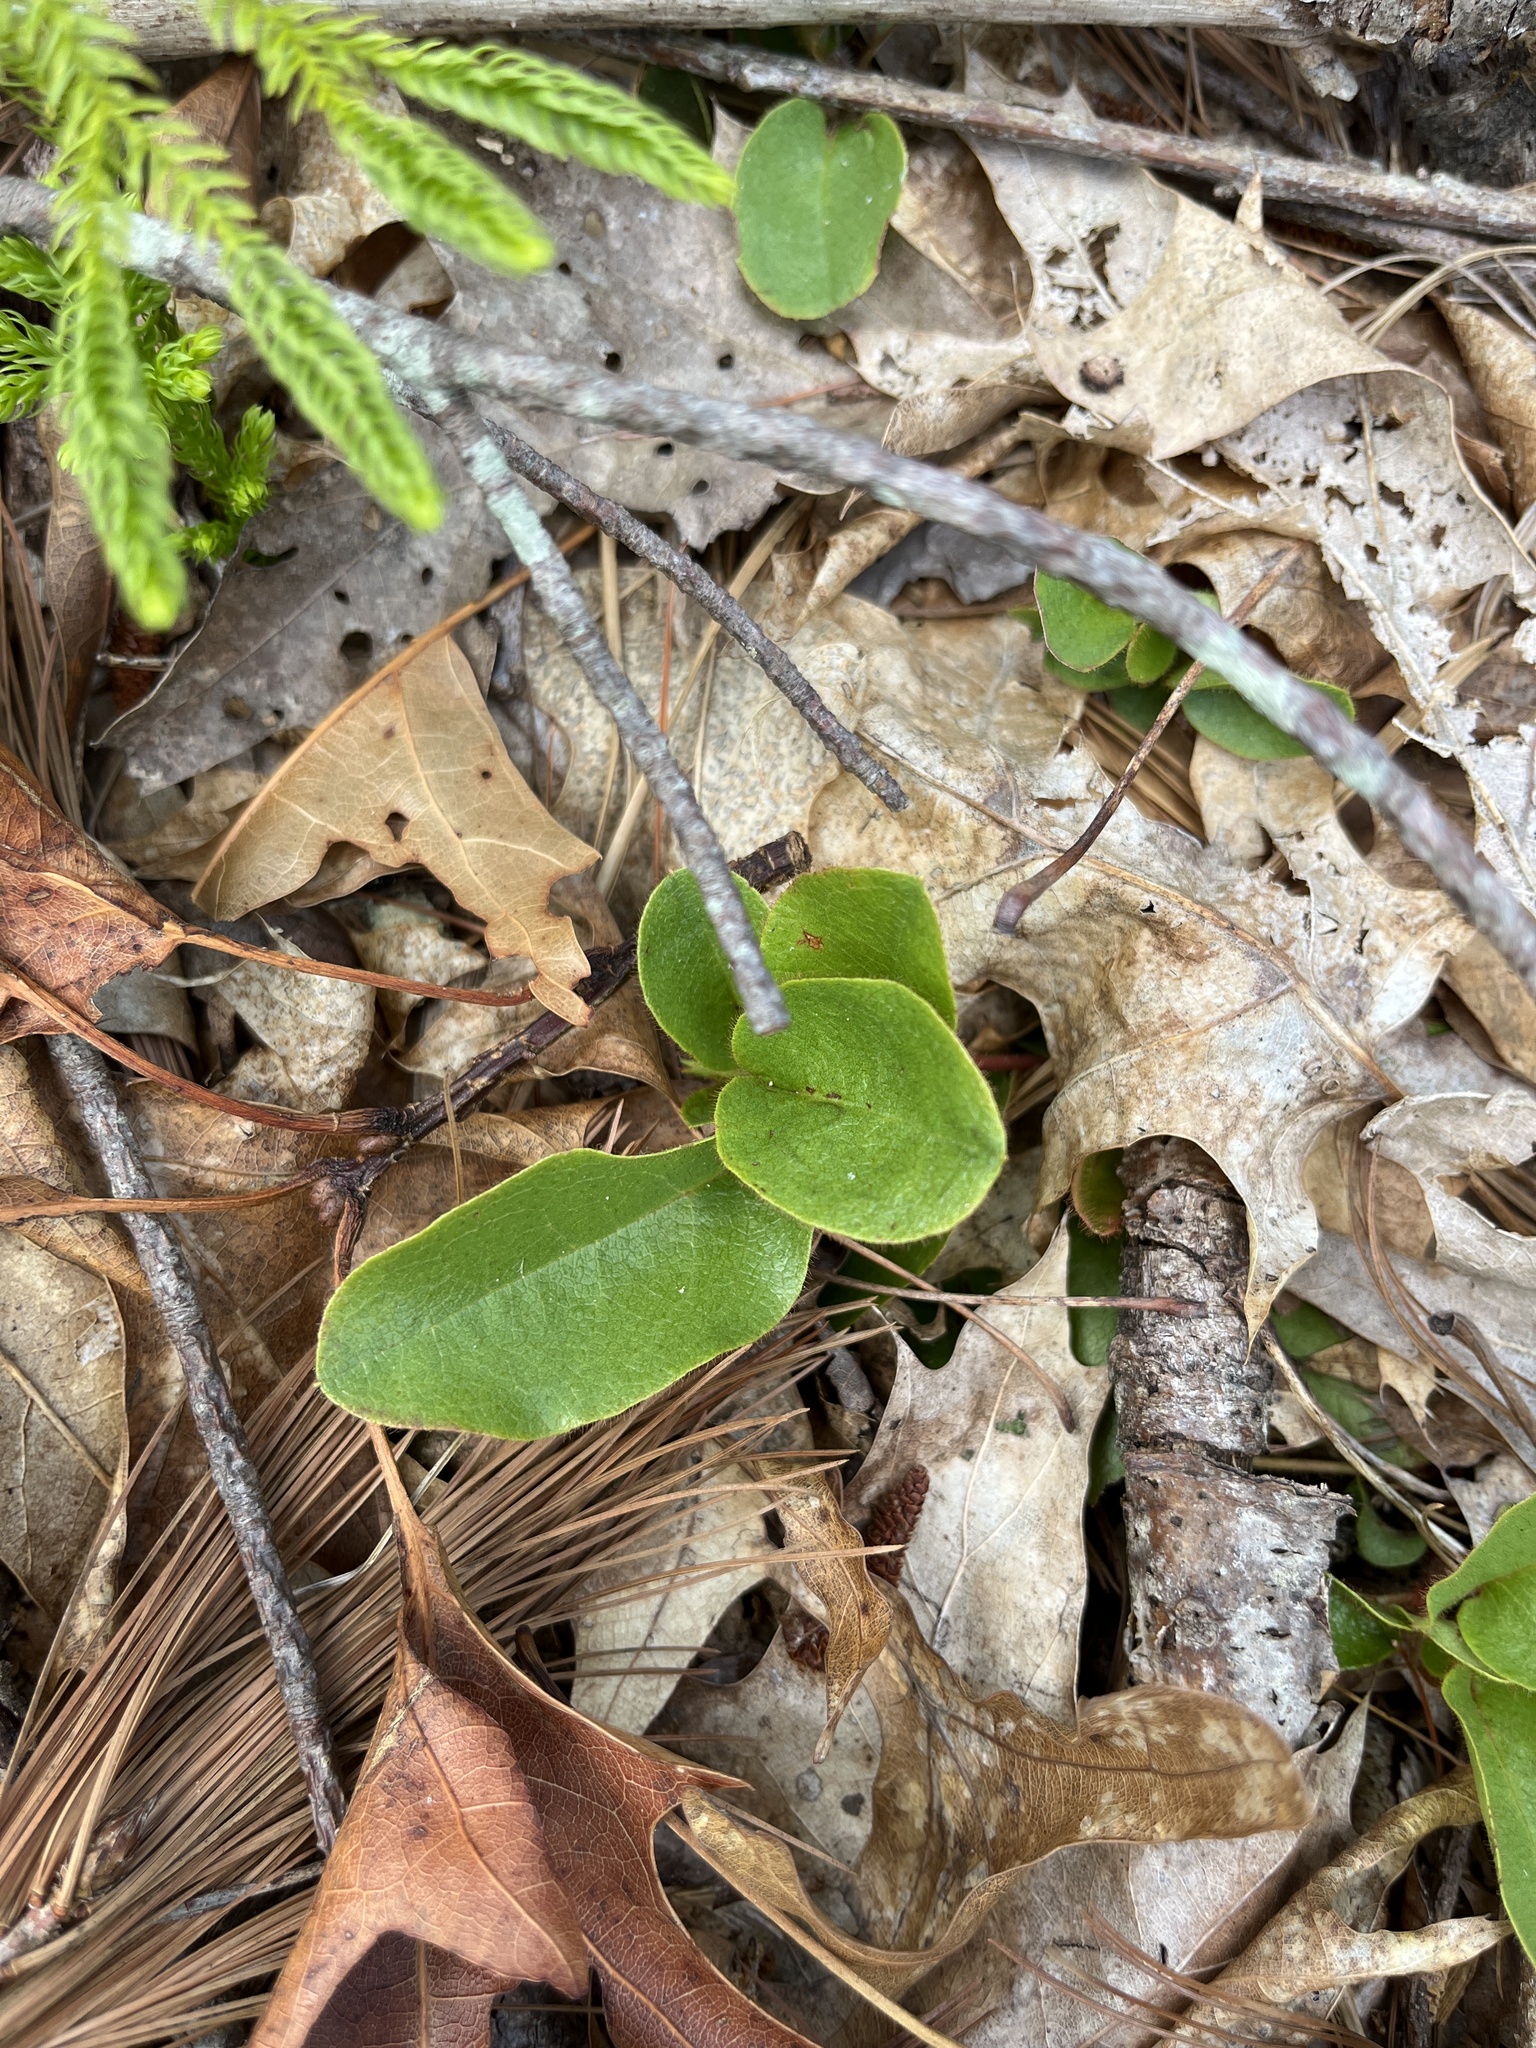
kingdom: Plantae
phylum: Tracheophyta
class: Magnoliopsida
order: Ericales
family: Ericaceae
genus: Epigaea
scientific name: Epigaea repens
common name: Gravelroot
